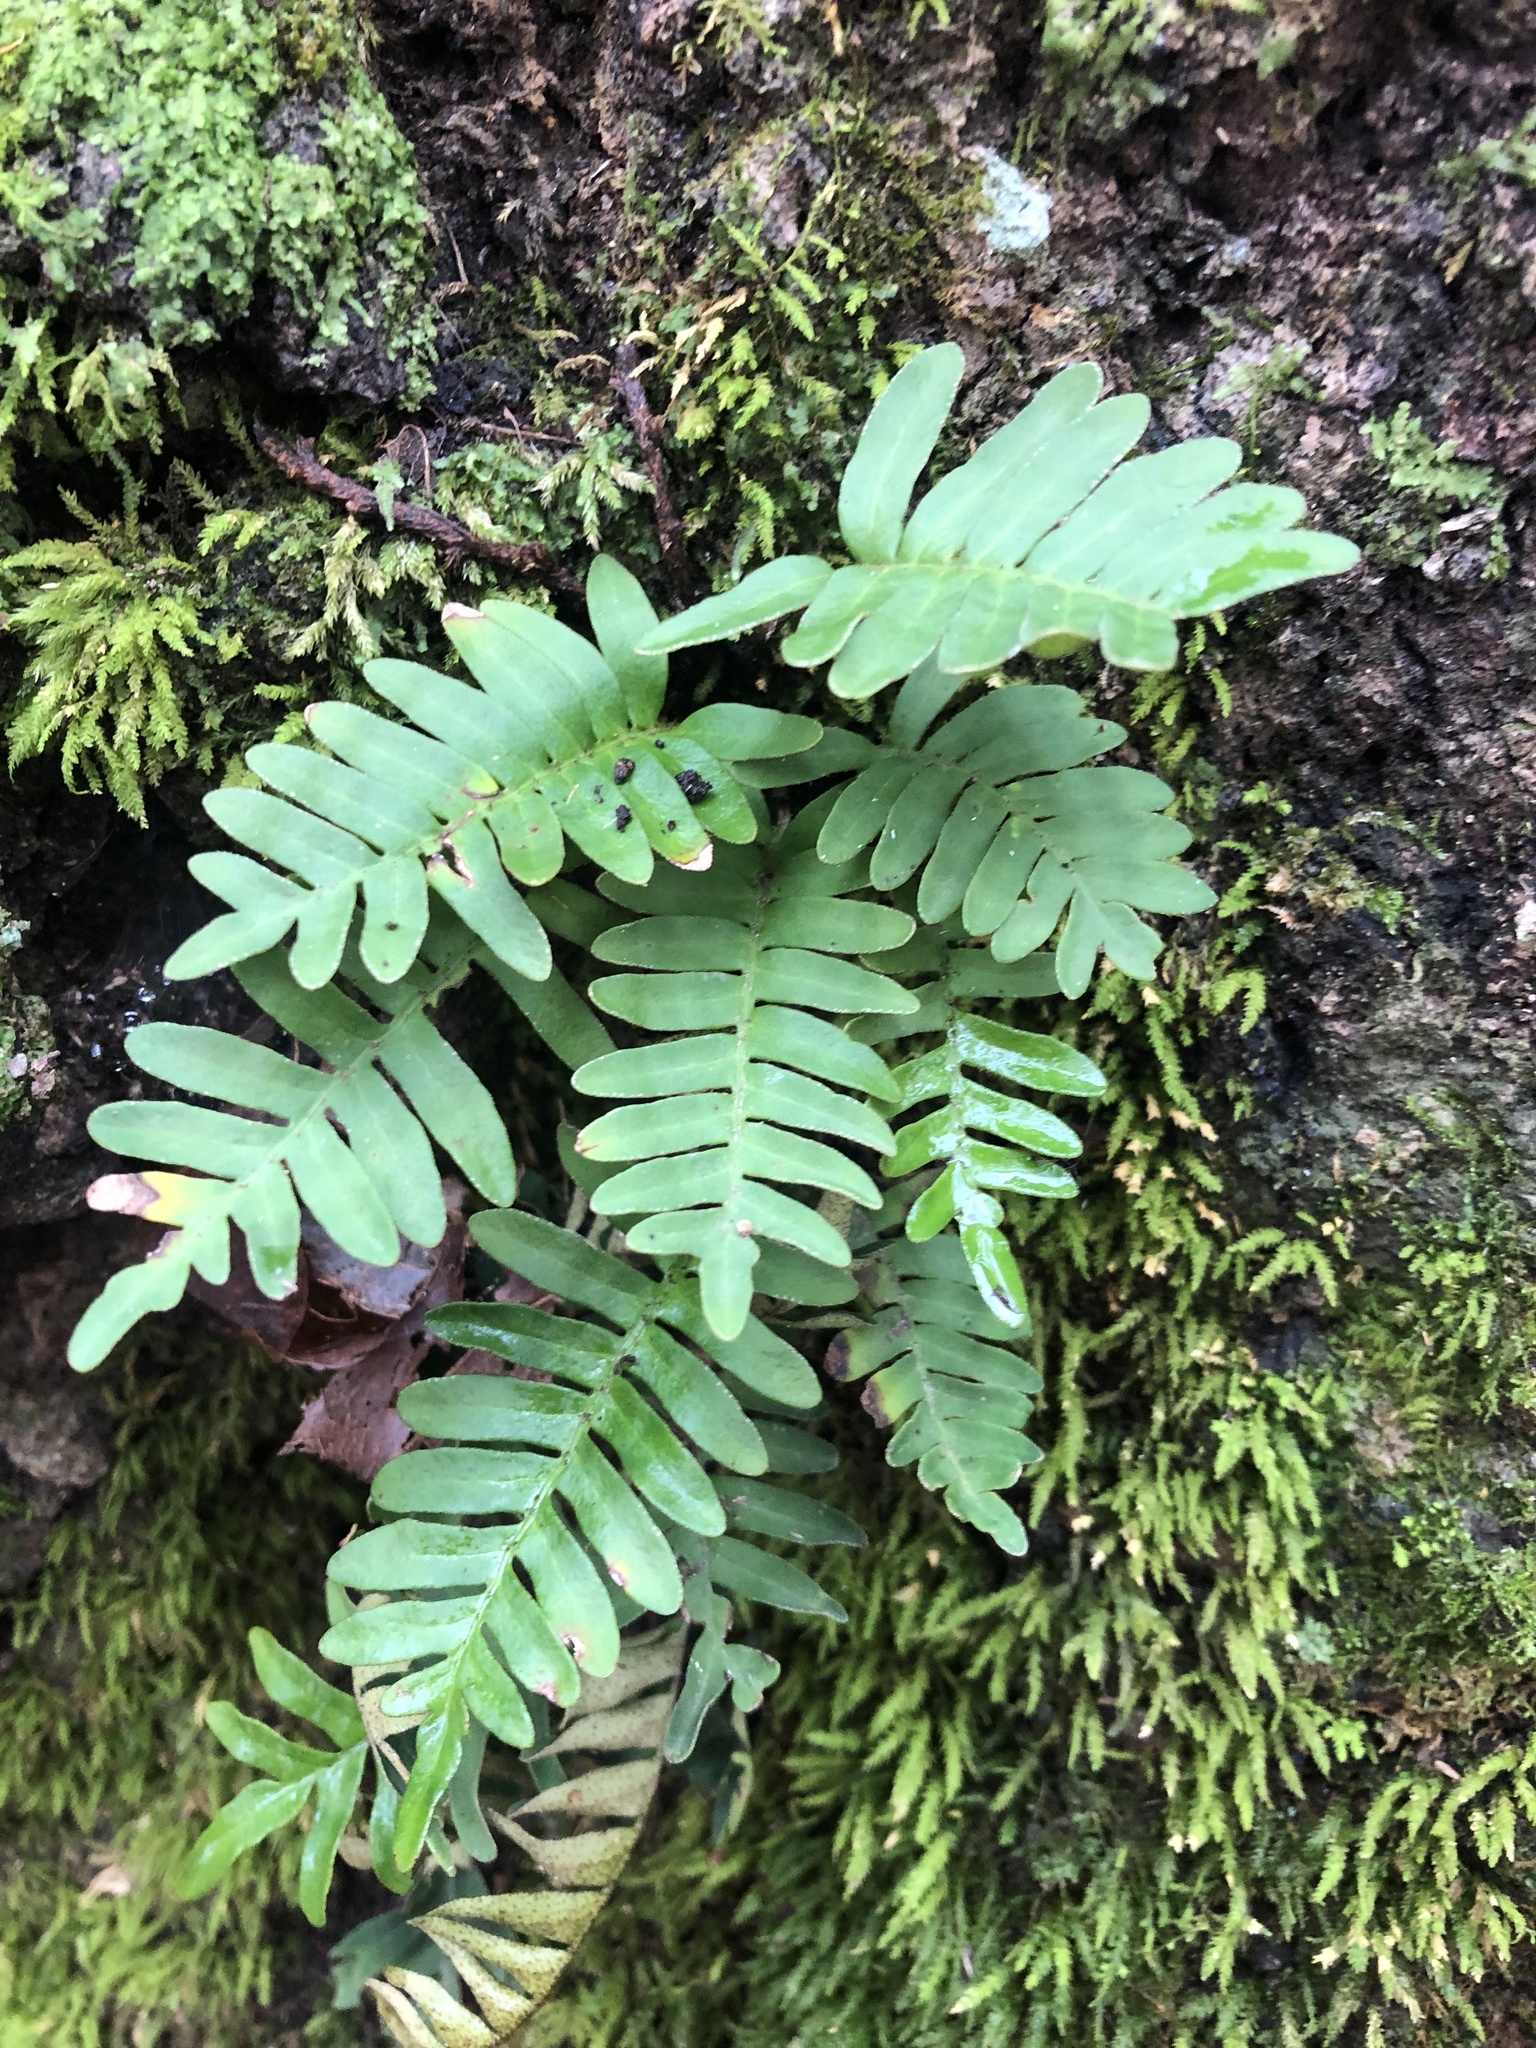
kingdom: Plantae
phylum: Tracheophyta
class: Polypodiopsida
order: Polypodiales
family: Polypodiaceae
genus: Pleopeltis
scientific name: Pleopeltis michauxiana
